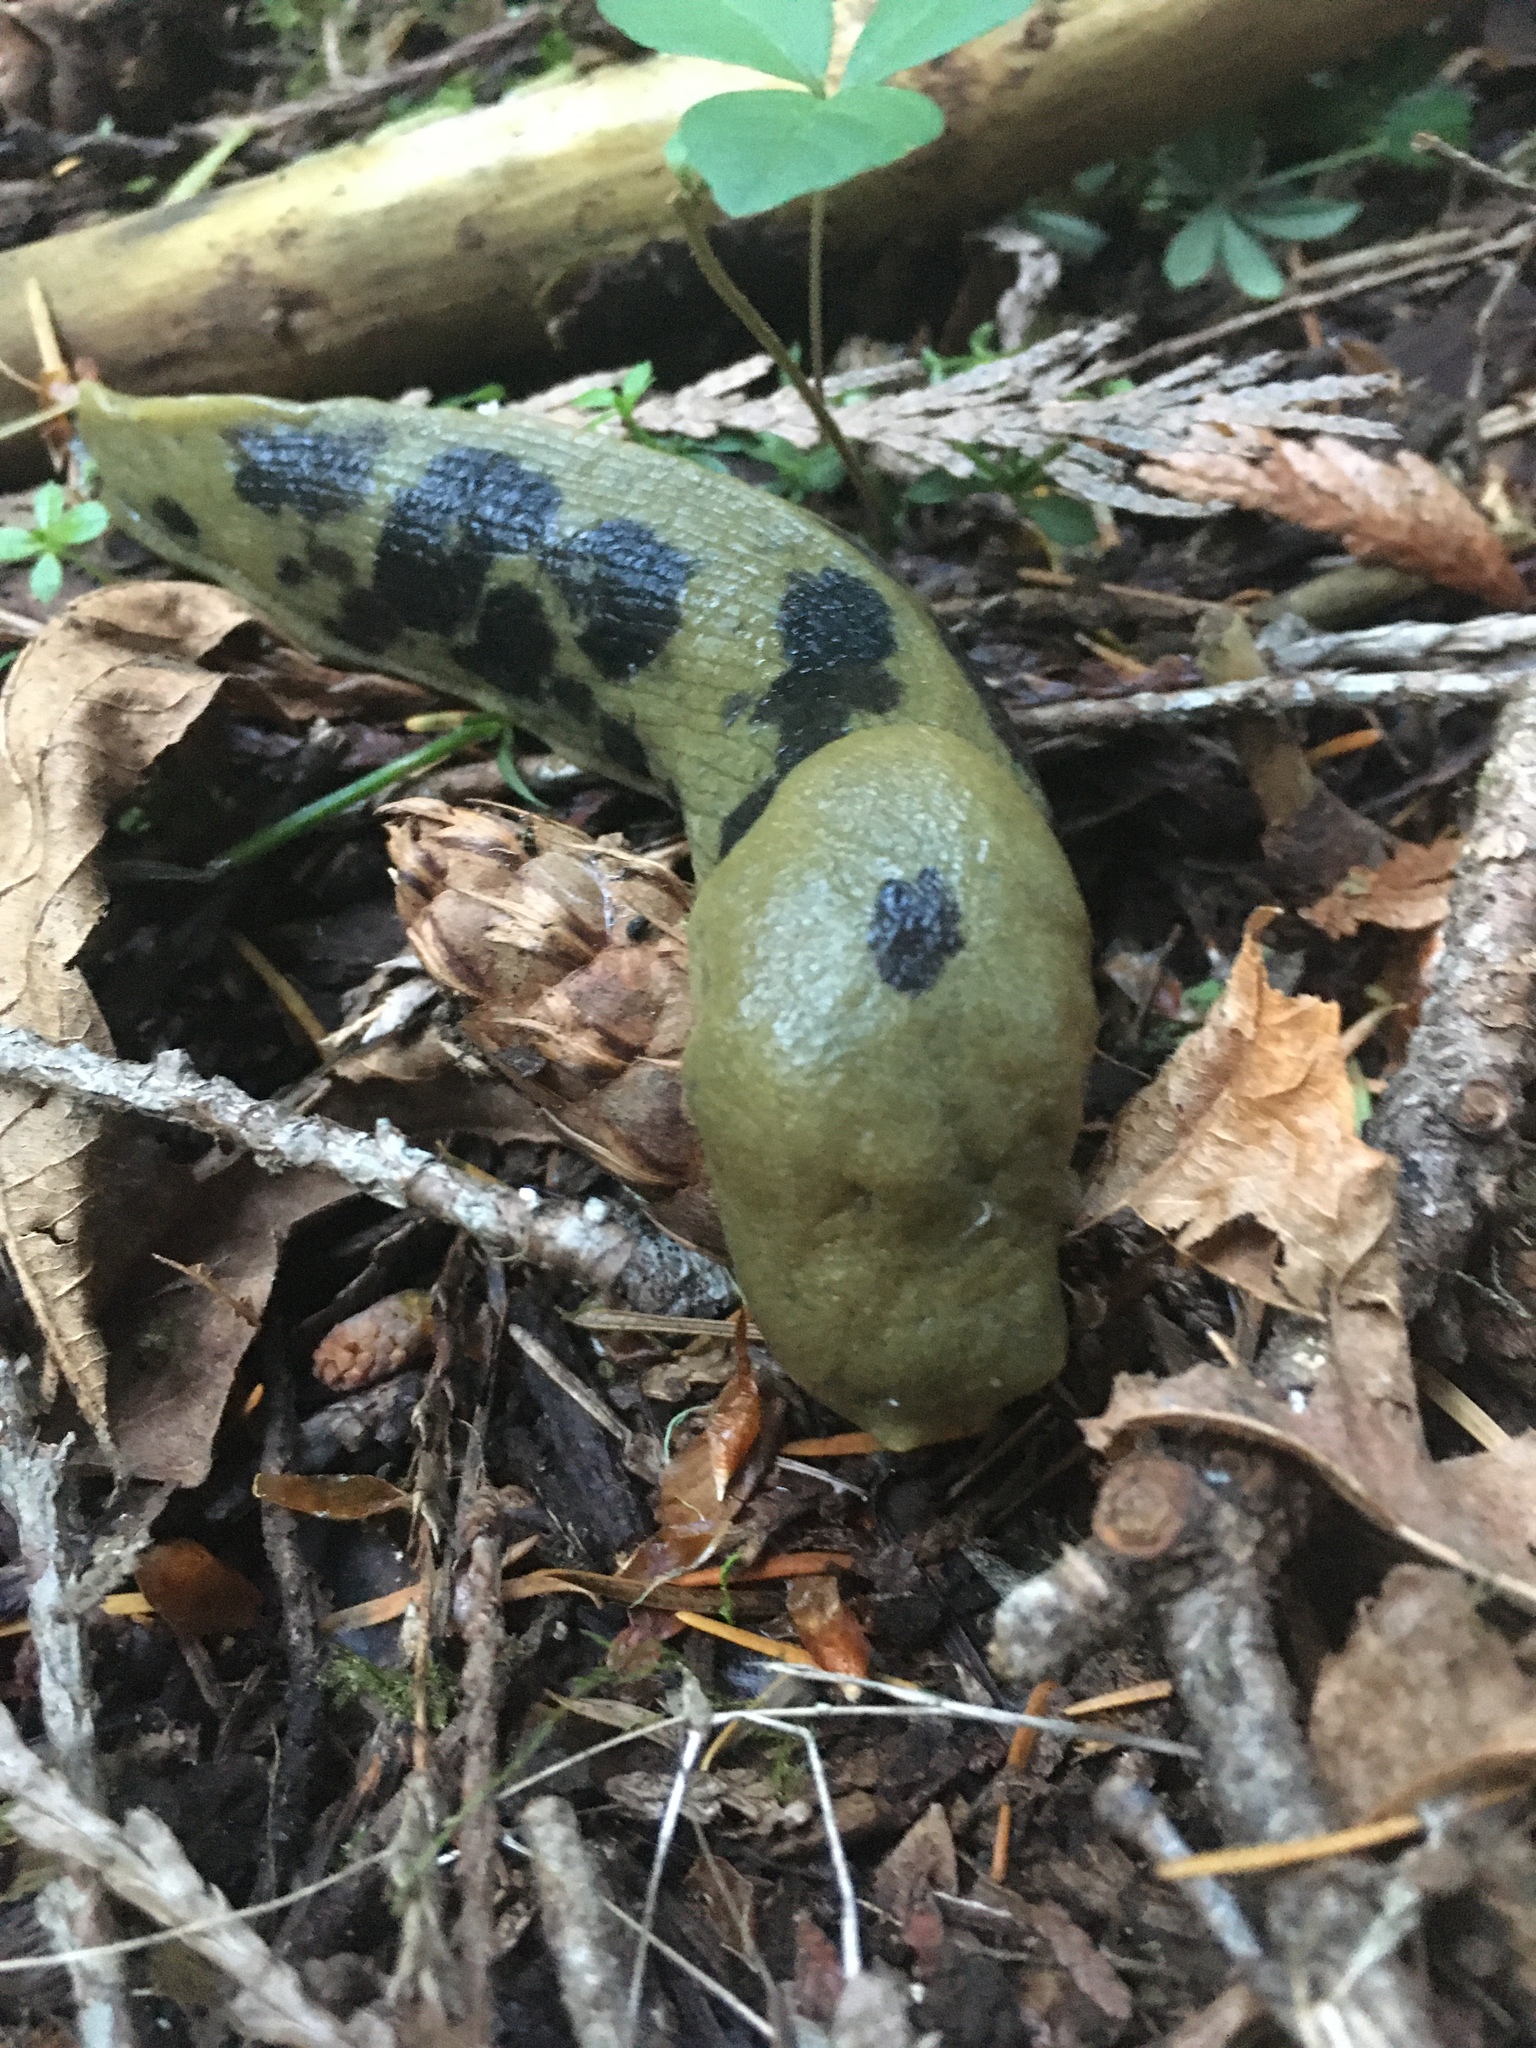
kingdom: Animalia
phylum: Mollusca
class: Gastropoda
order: Stylommatophora
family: Ariolimacidae
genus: Ariolimax
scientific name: Ariolimax columbianus
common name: Pacific banana slug
